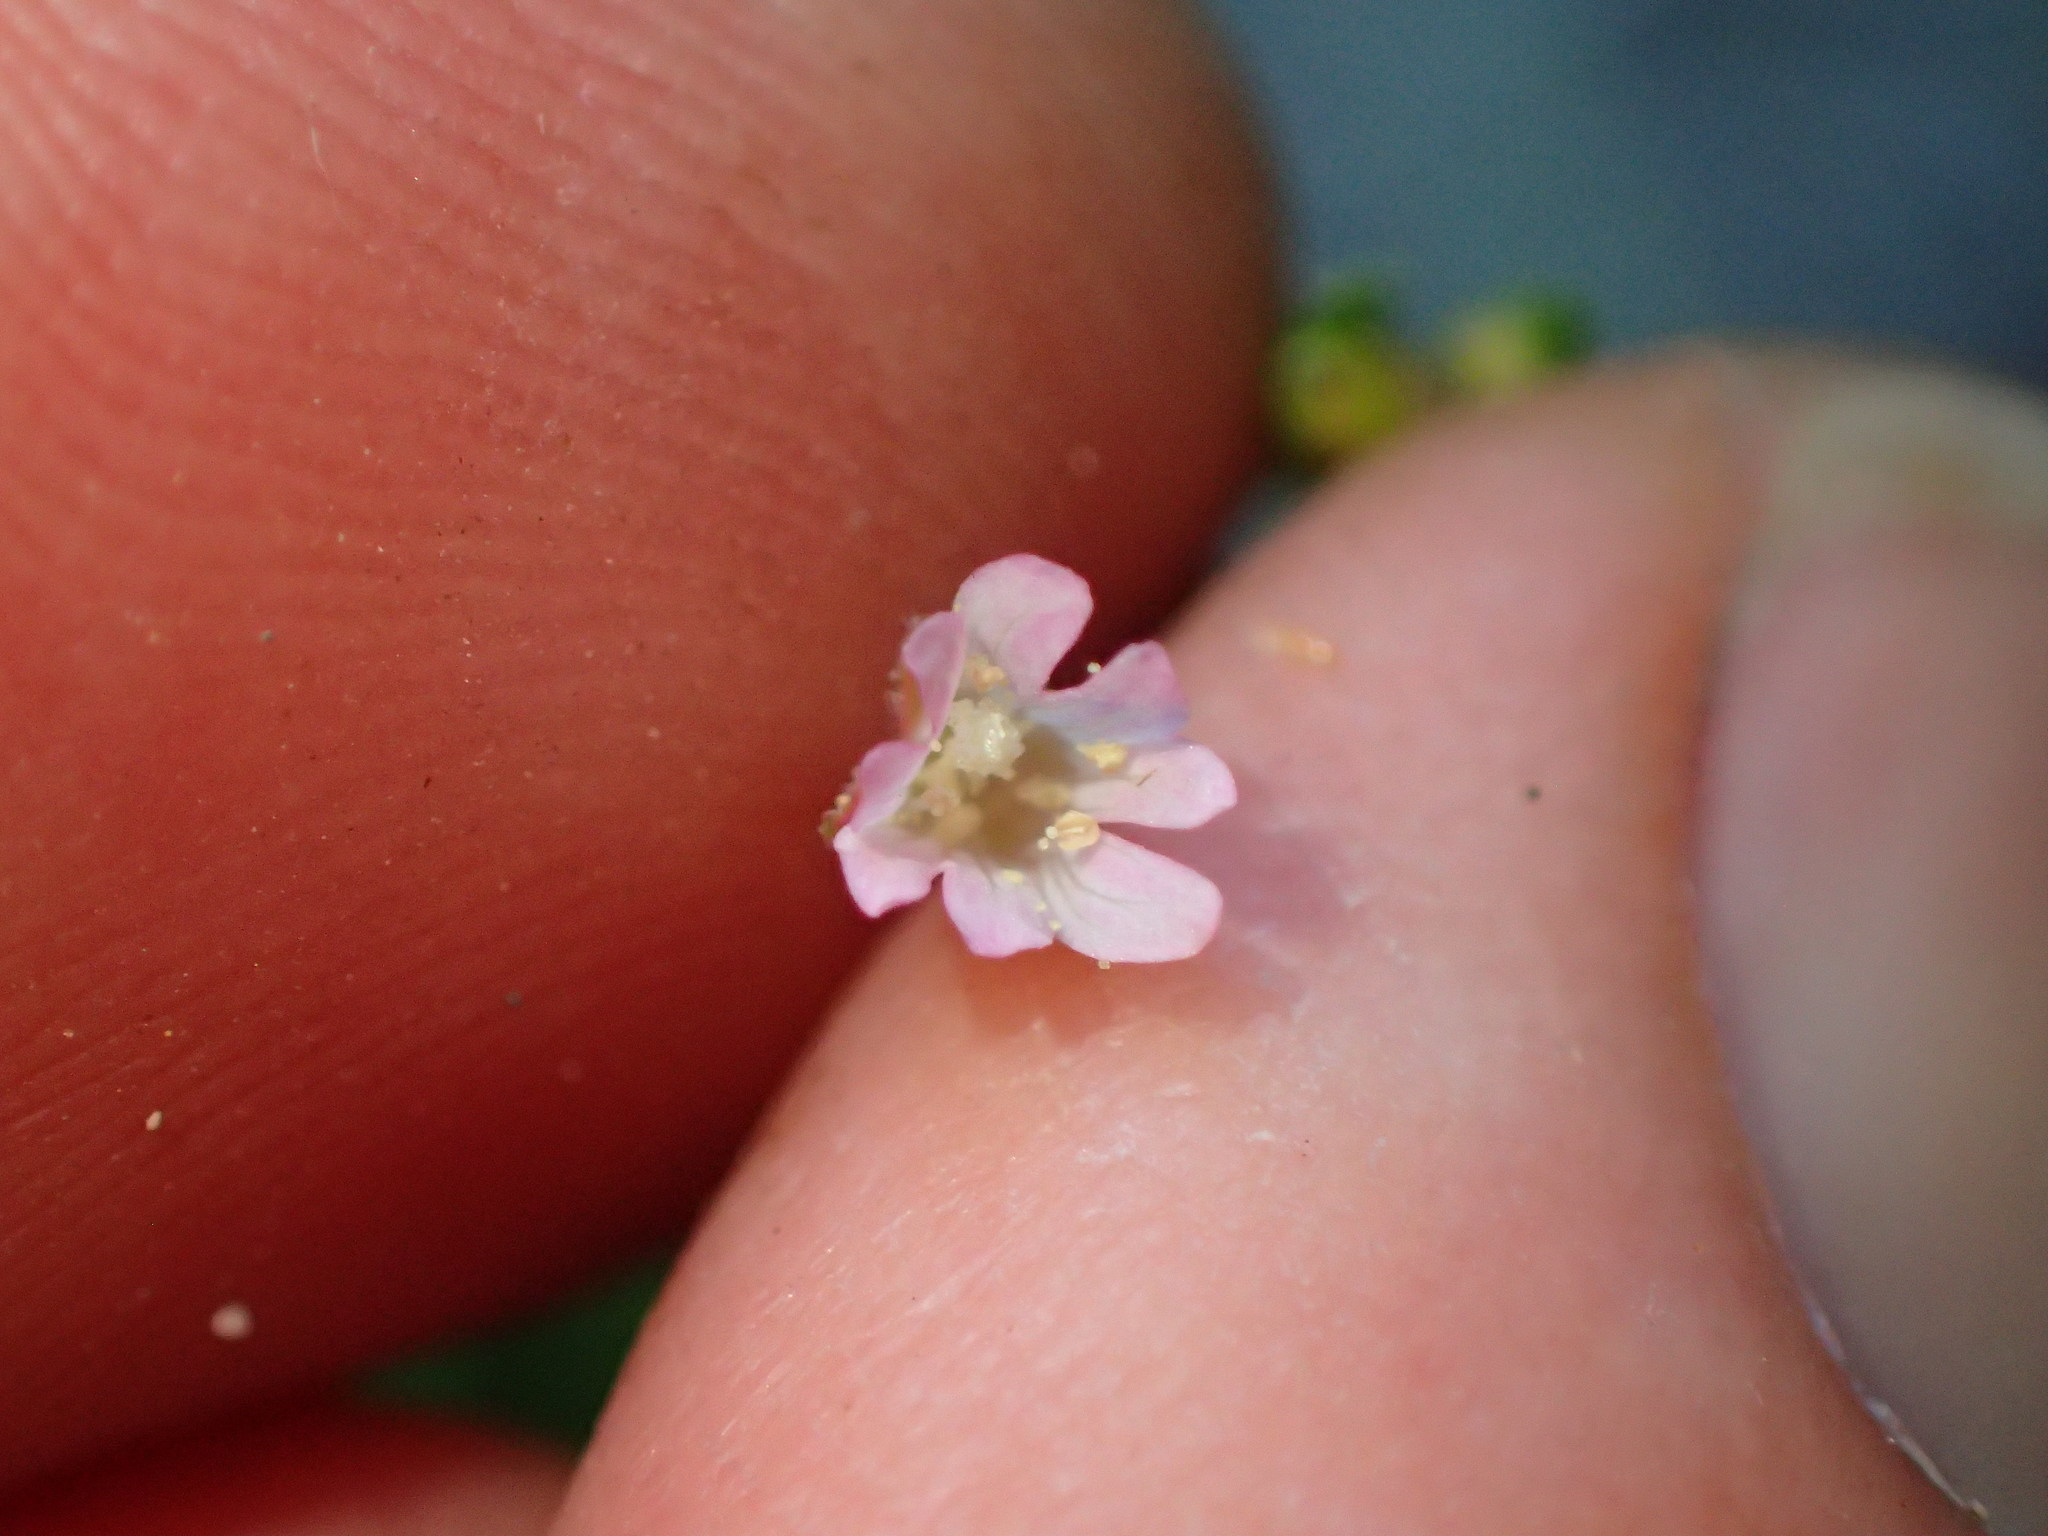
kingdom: Plantae
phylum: Tracheophyta
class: Magnoliopsida
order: Myrtales
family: Onagraceae
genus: Epilobium
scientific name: Epilobium ciliatum
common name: American willowherb
